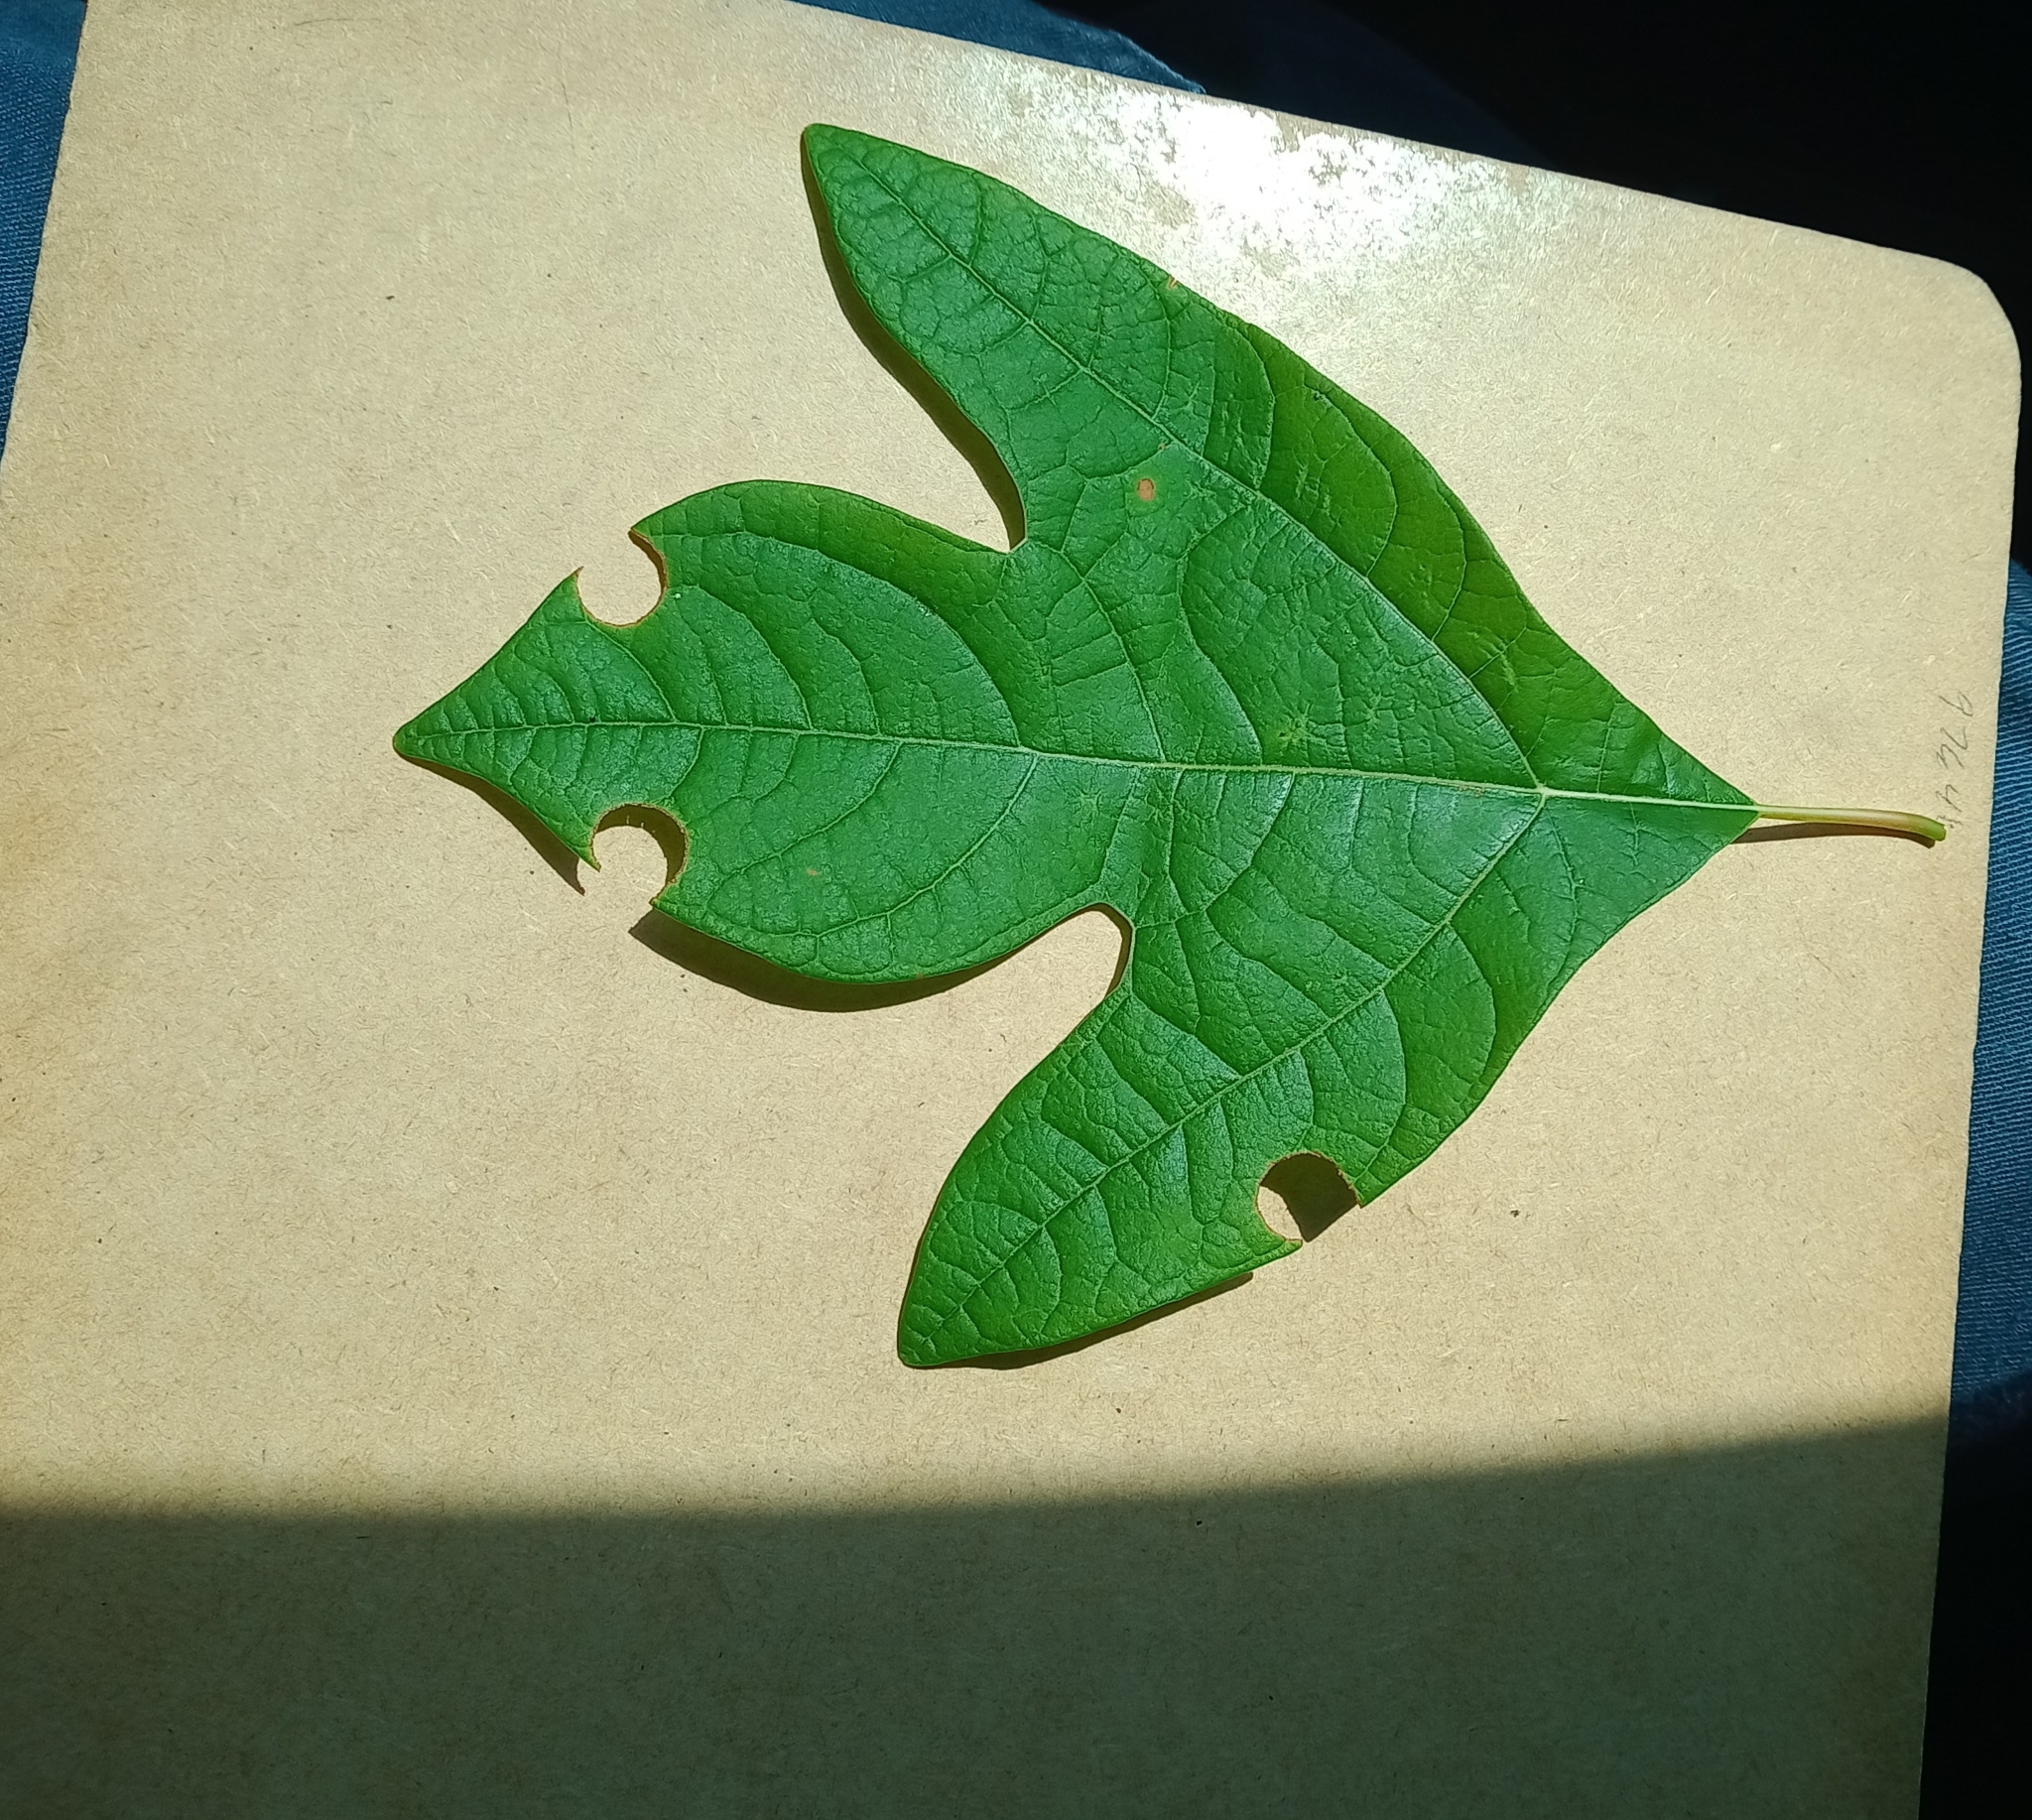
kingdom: Plantae
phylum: Tracheophyta
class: Magnoliopsida
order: Laurales
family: Lauraceae
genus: Sassafras
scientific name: Sassafras albidum
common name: Sassafras
